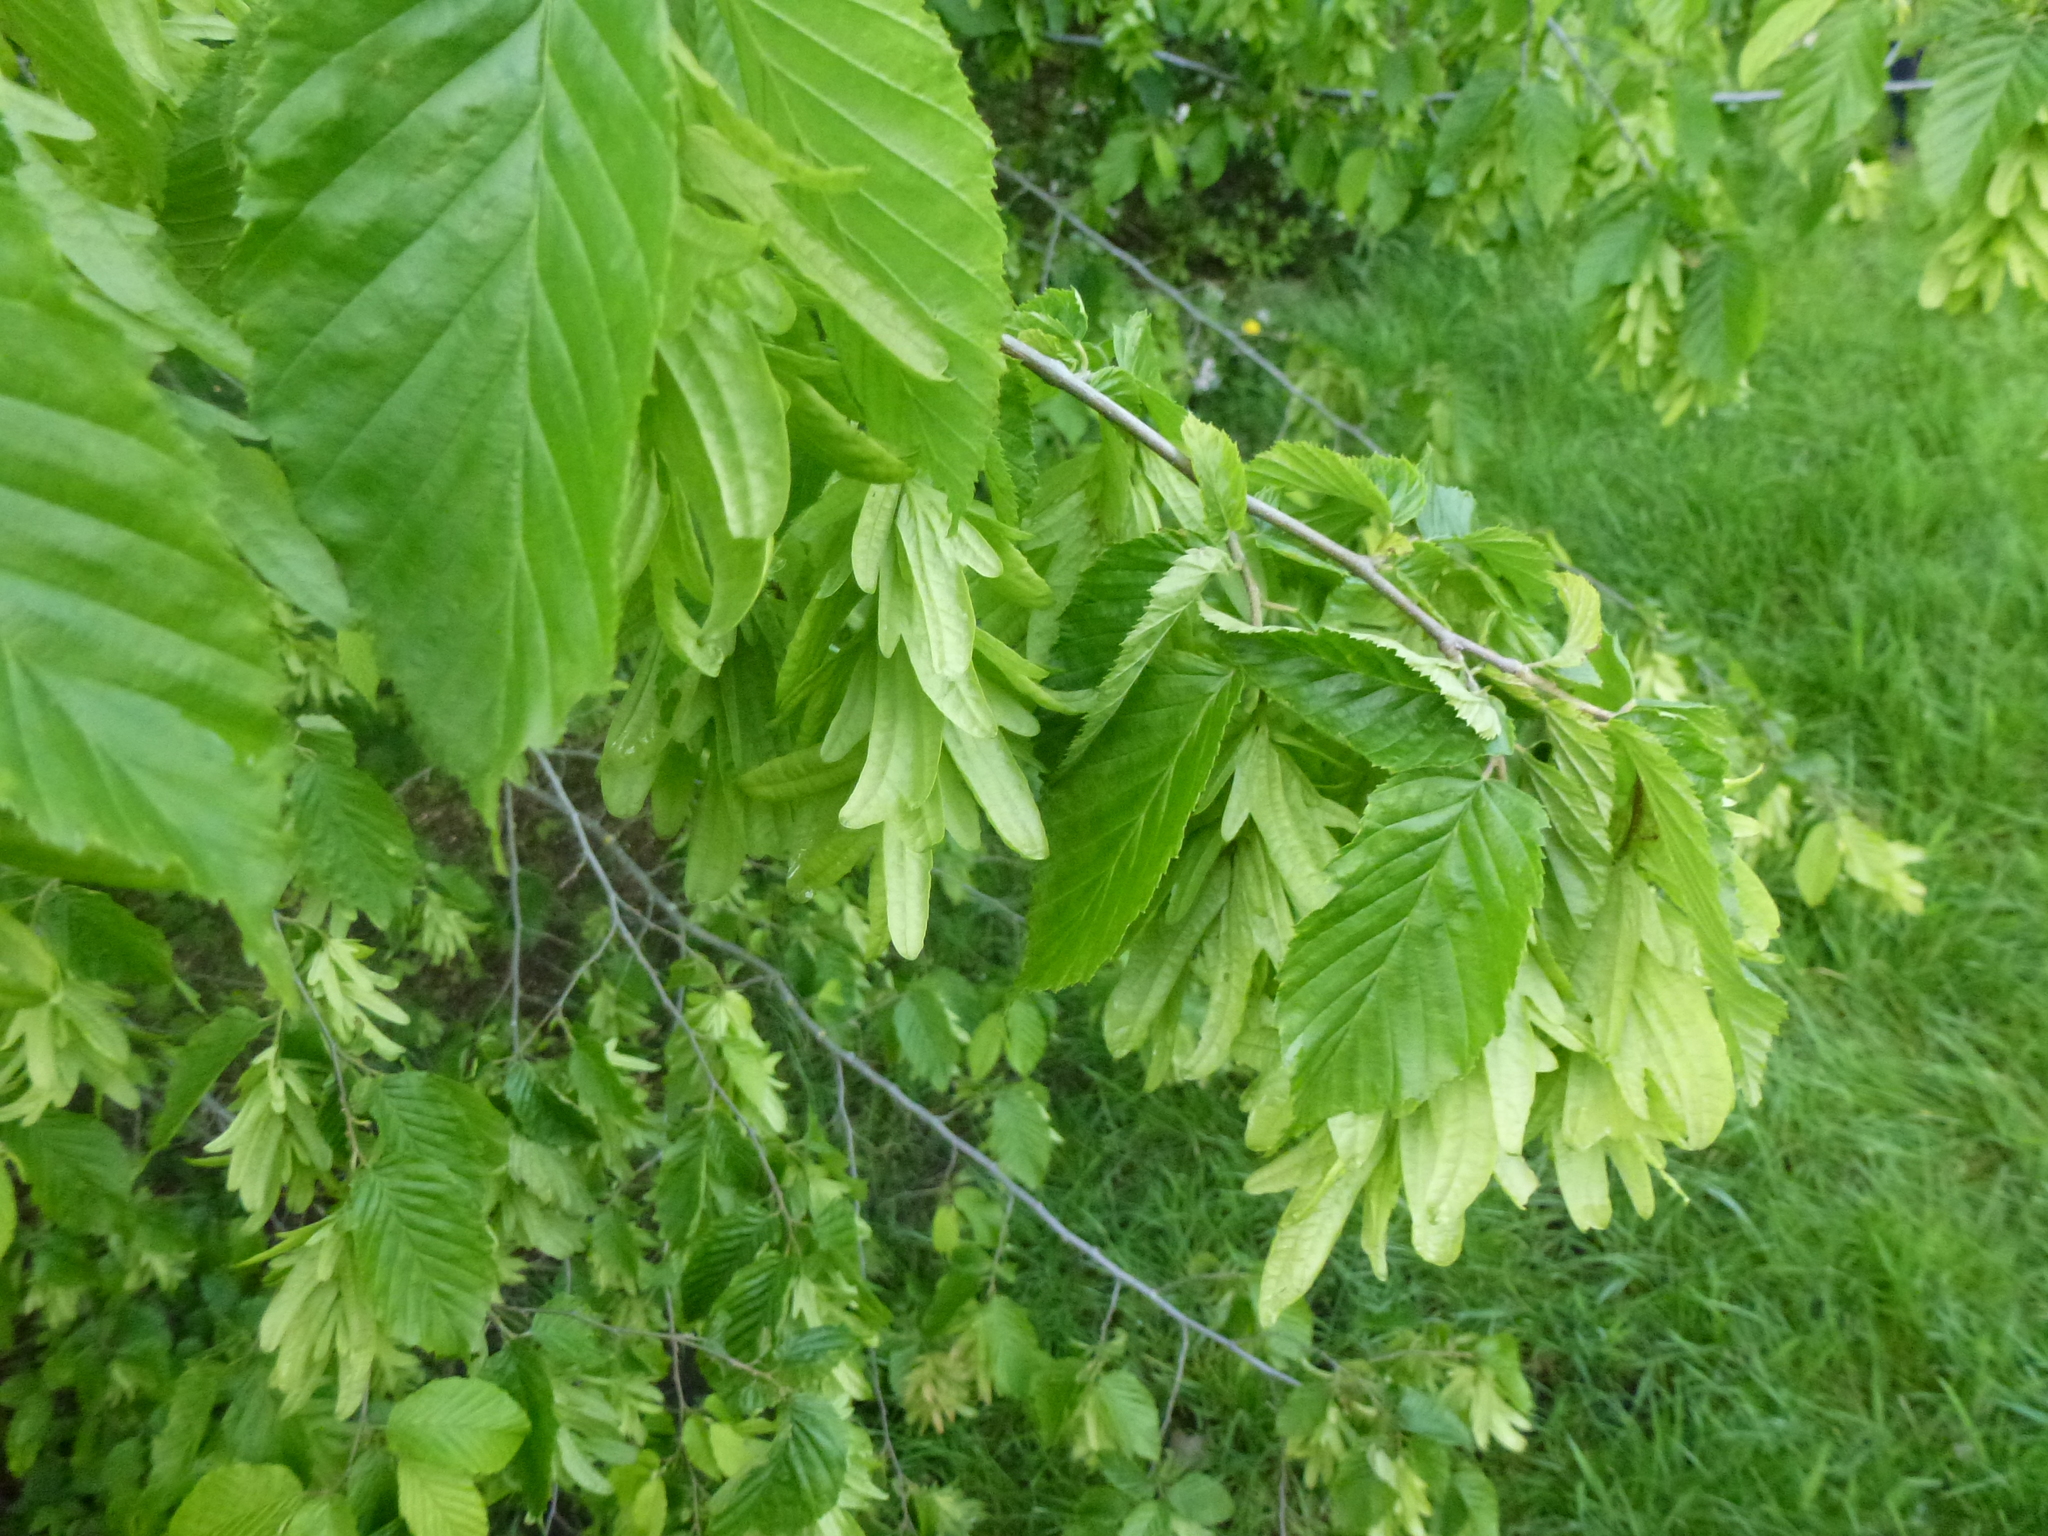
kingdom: Plantae
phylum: Tracheophyta
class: Magnoliopsida
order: Fagales
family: Betulaceae
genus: Carpinus
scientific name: Carpinus betulus
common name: Hornbeam
